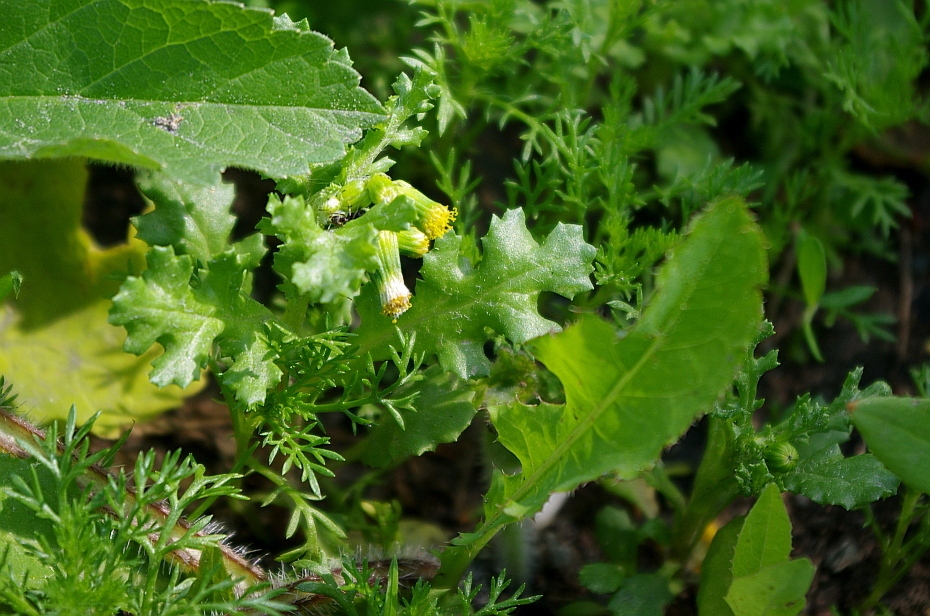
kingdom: Plantae
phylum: Tracheophyta
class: Magnoliopsida
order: Asterales
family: Asteraceae
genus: Senecio
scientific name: Senecio vulgaris
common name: Old-man-in-the-spring
